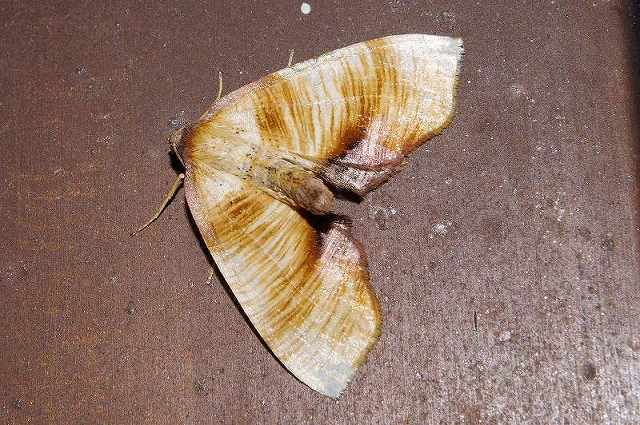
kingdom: Animalia
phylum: Arthropoda
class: Insecta
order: Lepidoptera
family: Geometridae
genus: Plagodis
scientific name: Plagodis dolabraria
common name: Scorched wing
